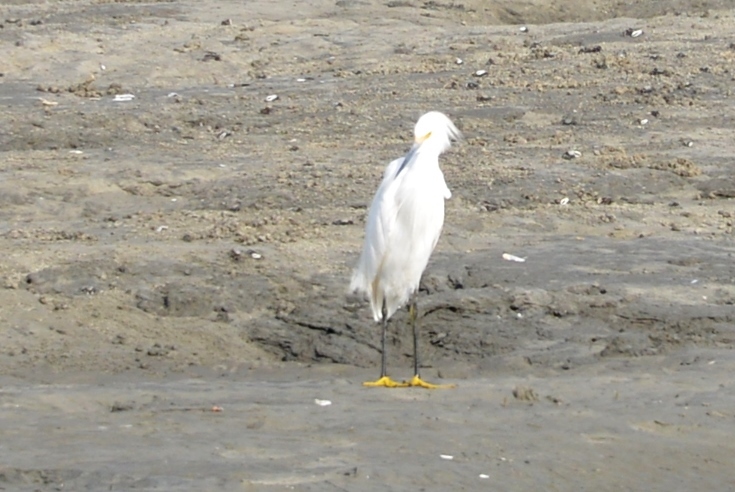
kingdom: Animalia
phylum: Chordata
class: Aves
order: Pelecaniformes
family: Ardeidae
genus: Egretta
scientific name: Egretta thula
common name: Snowy egret
